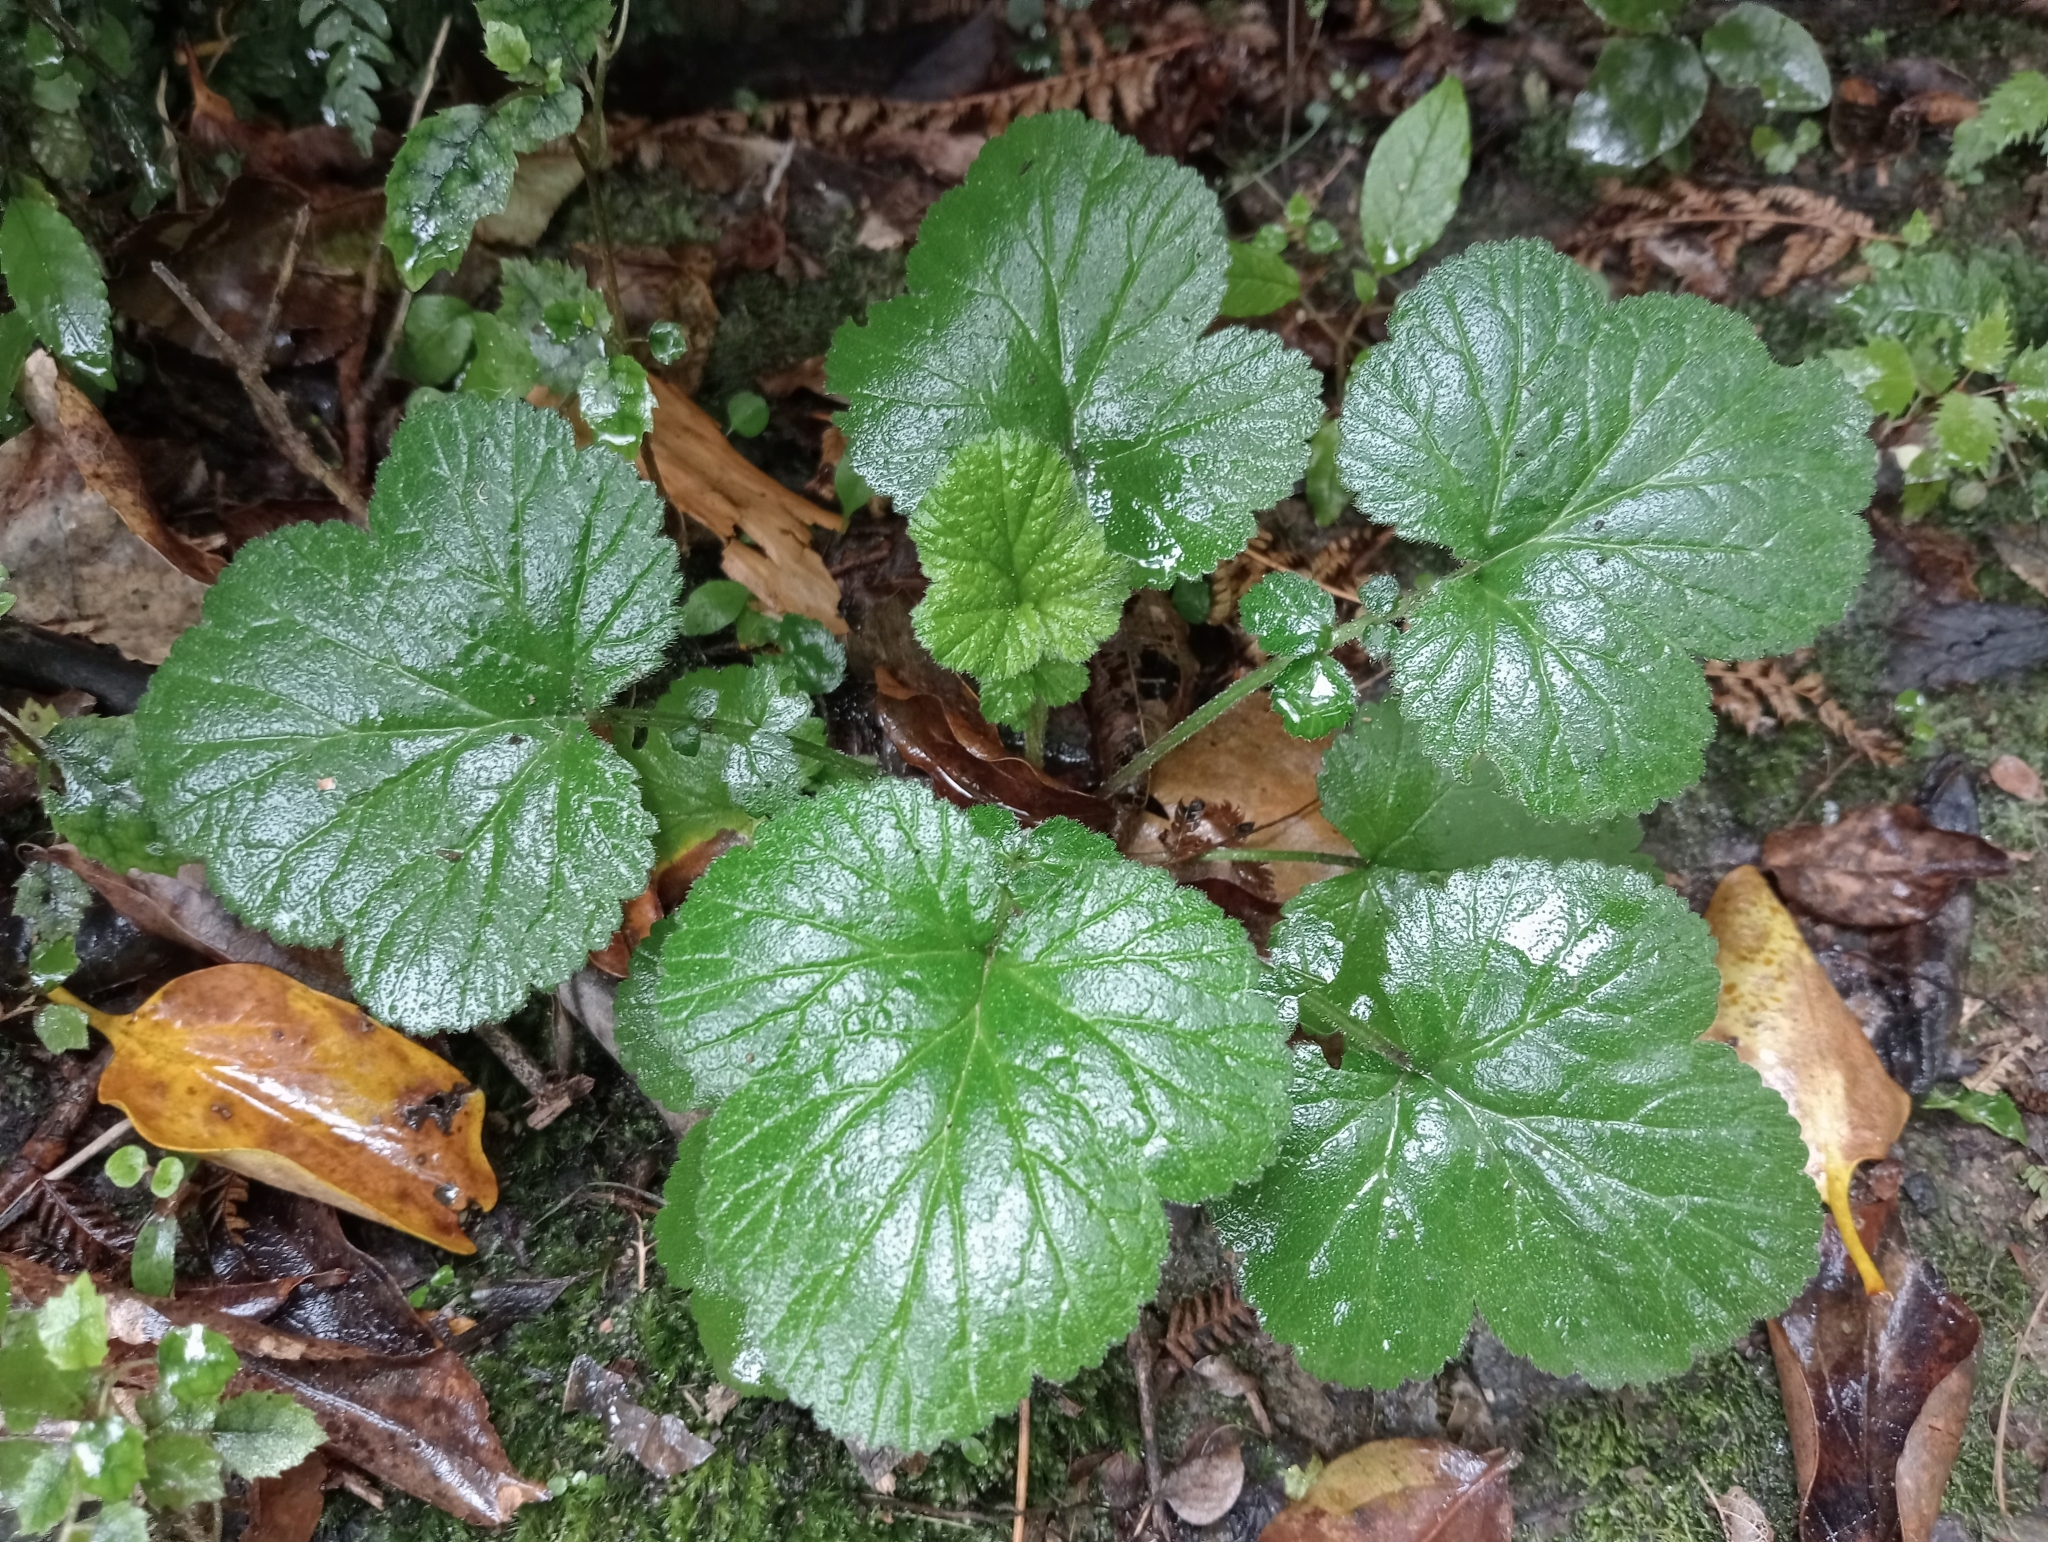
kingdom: Plantae
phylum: Tracheophyta
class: Magnoliopsida
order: Rosales
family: Rosaceae
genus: Geum
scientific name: Geum urbanum
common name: Wood avens
